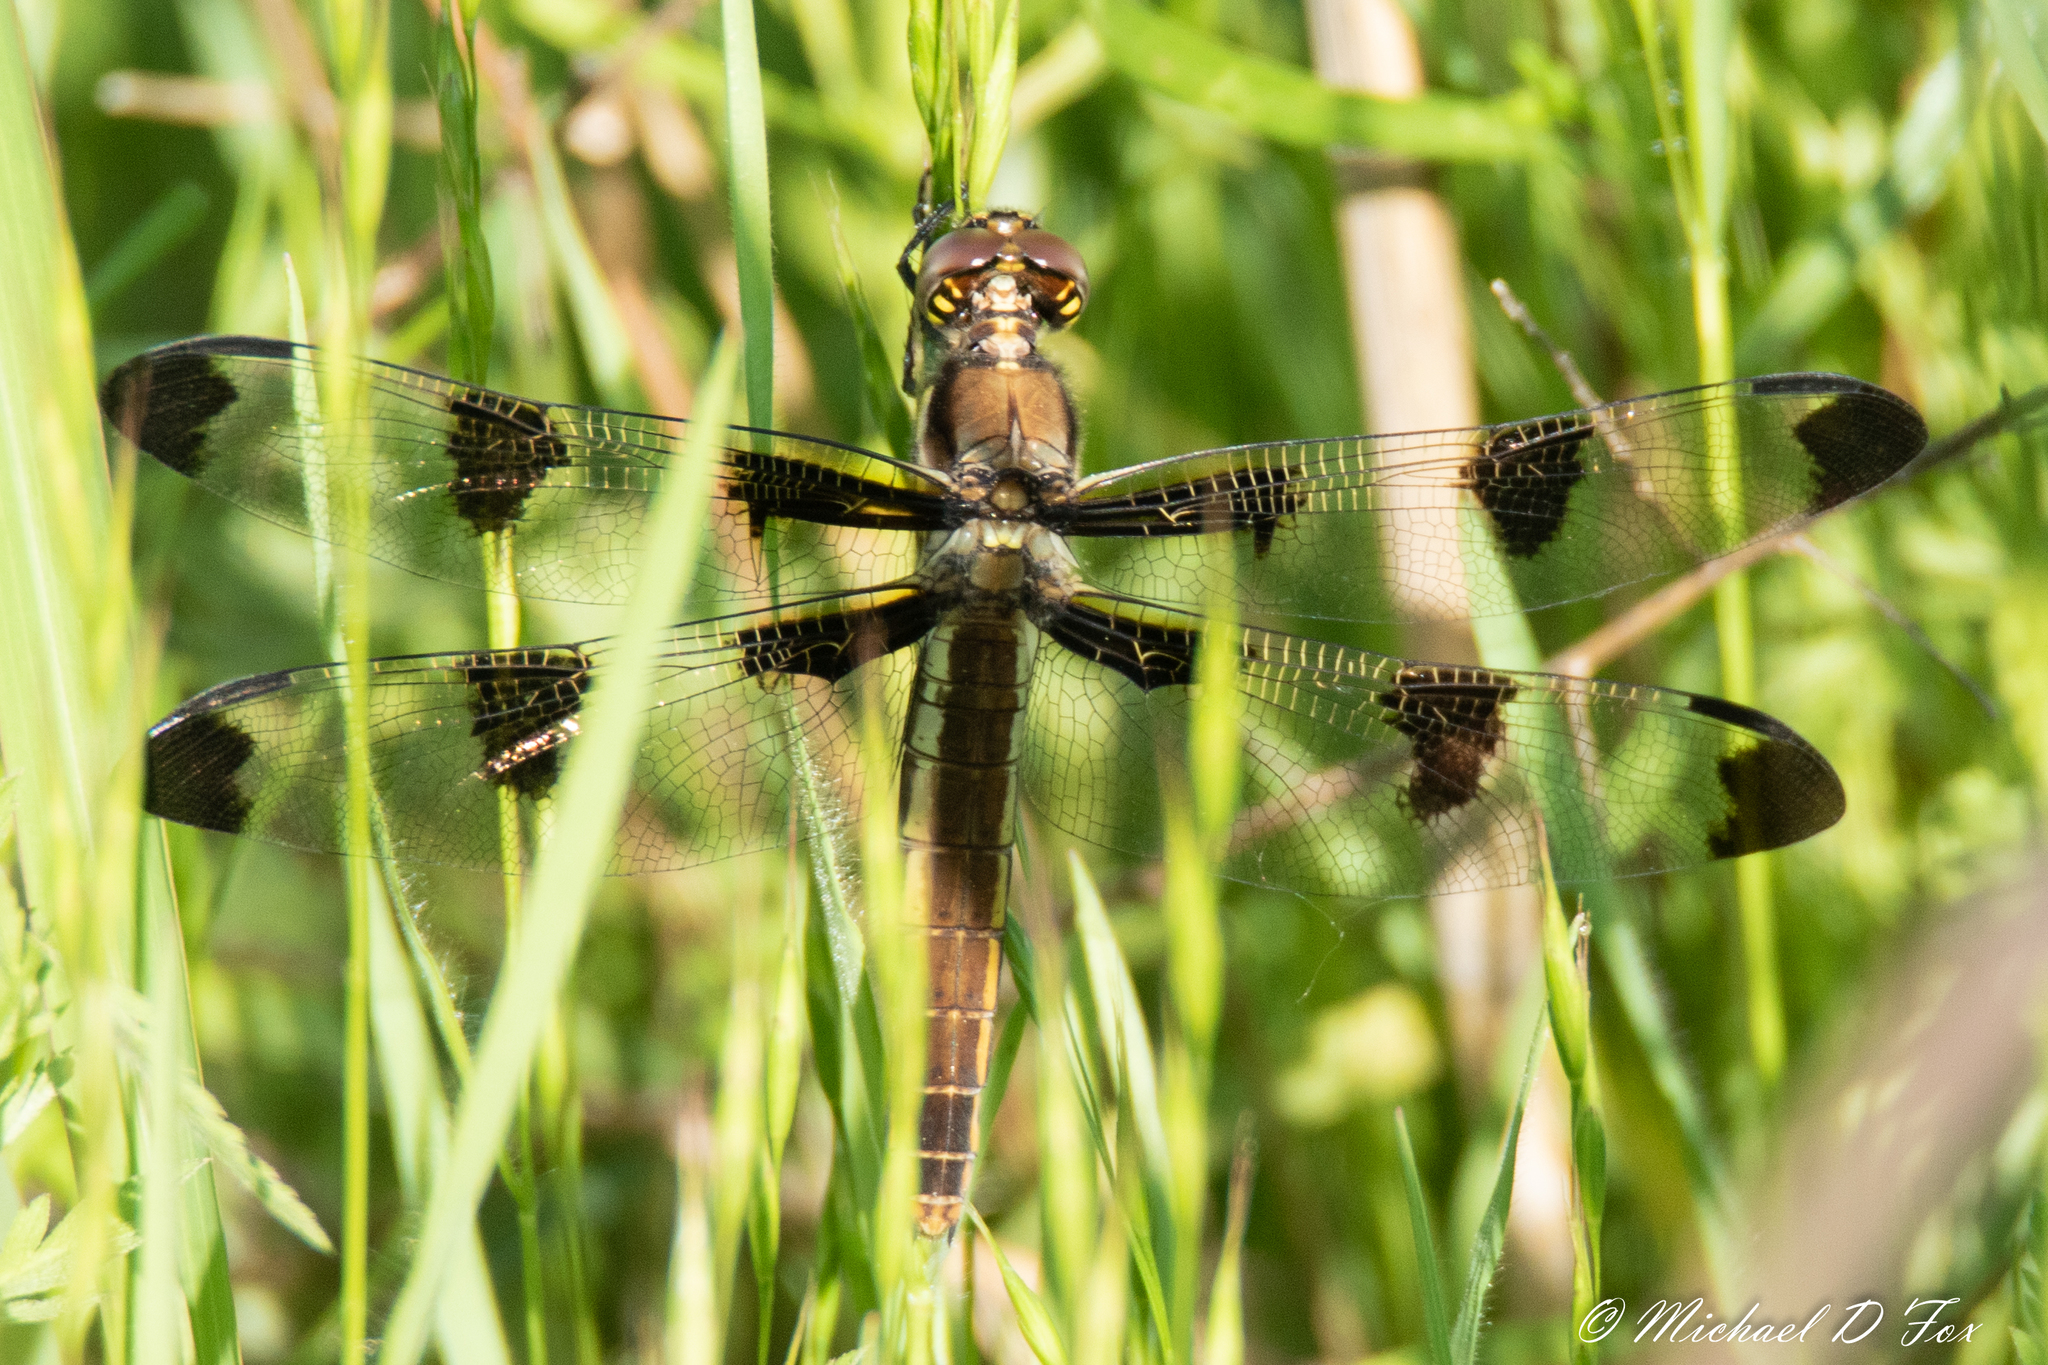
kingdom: Animalia
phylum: Arthropoda
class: Insecta
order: Odonata
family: Libellulidae
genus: Libellula
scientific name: Libellula pulchella
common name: Twelve-spotted skimmer
